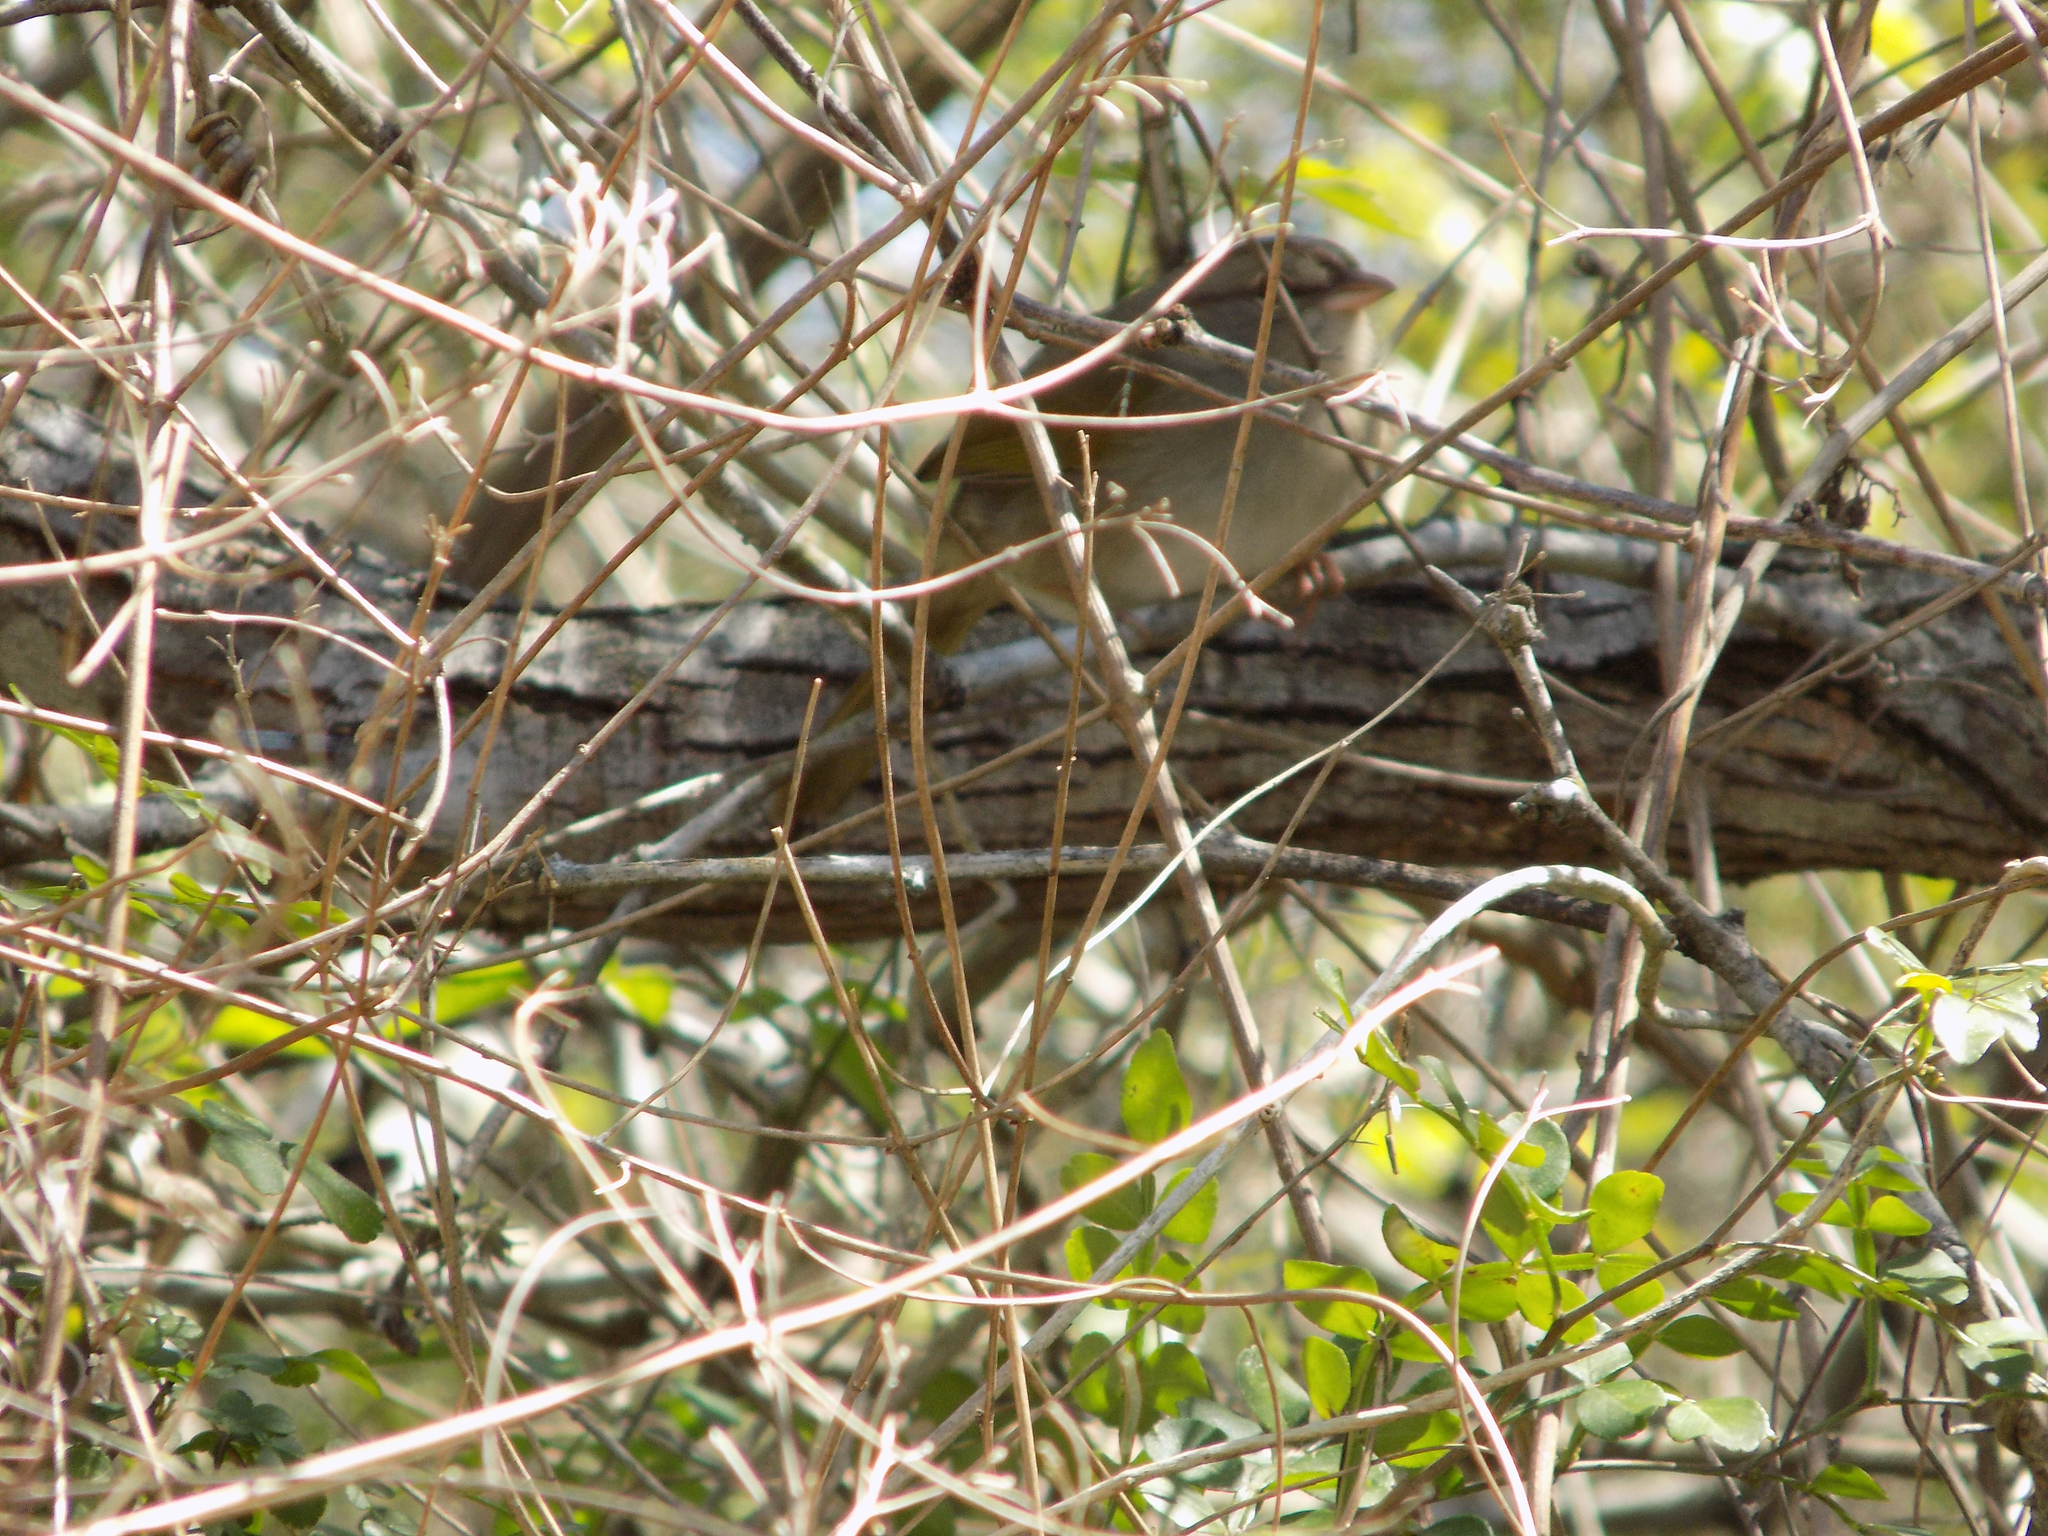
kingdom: Animalia
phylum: Chordata
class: Aves
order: Passeriformes
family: Passerellidae
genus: Arremonops
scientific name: Arremonops rufivirgatus
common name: Olive sparrow
